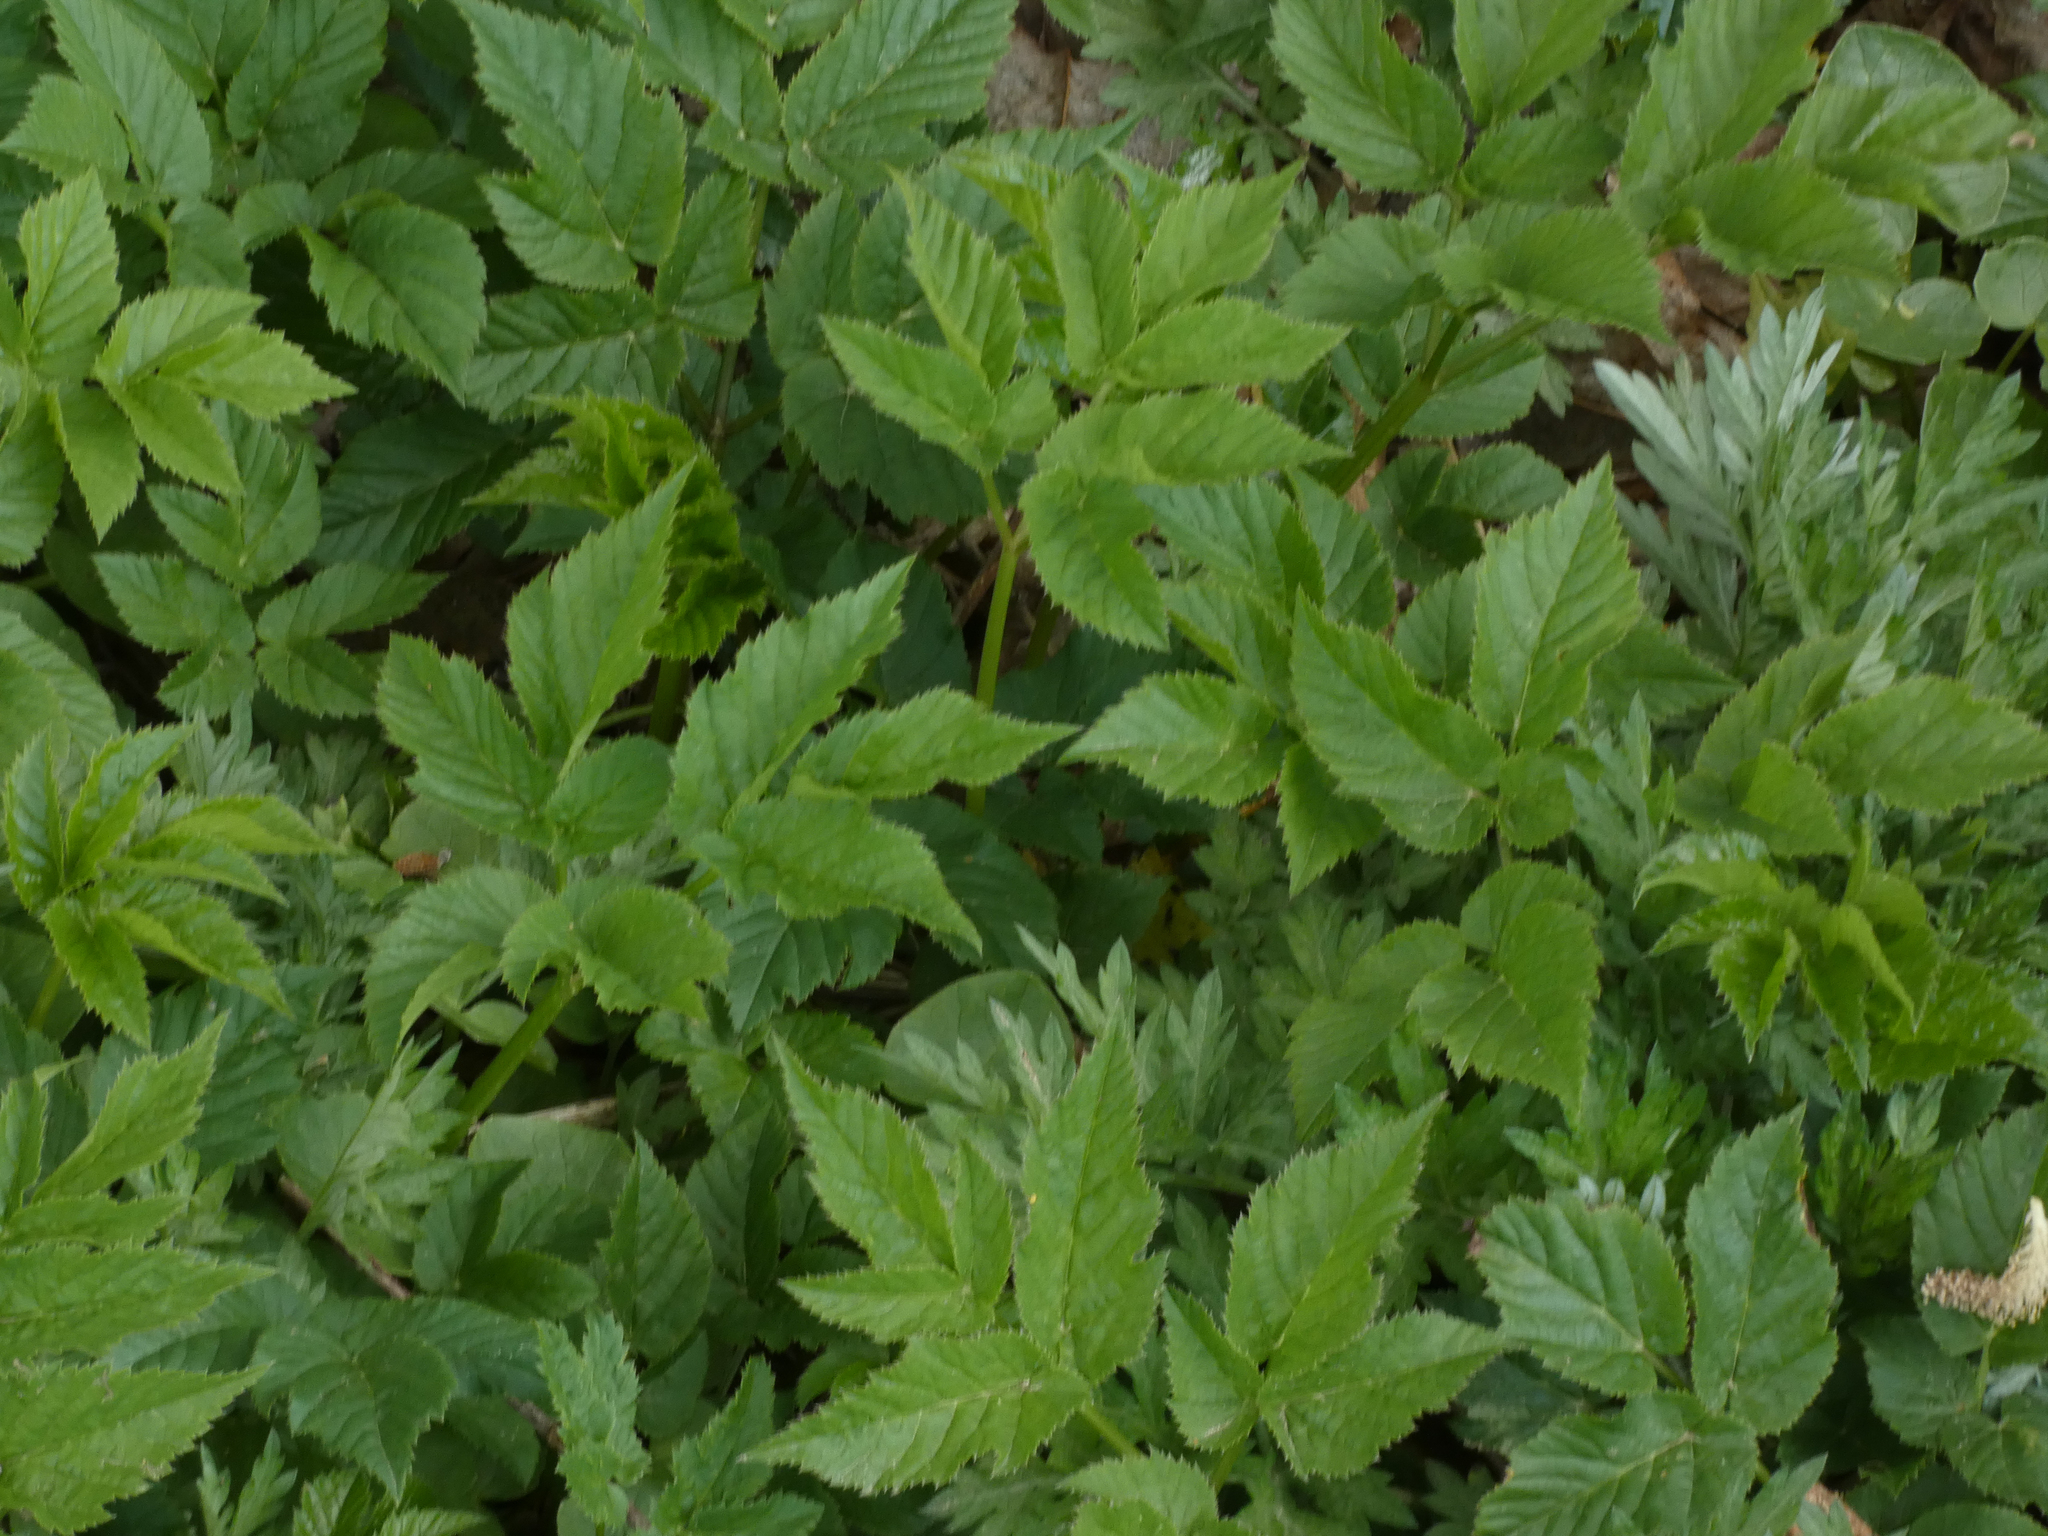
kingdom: Plantae
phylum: Tracheophyta
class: Magnoliopsida
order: Apiales
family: Apiaceae
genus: Aegopodium
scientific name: Aegopodium podagraria
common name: Ground-elder
